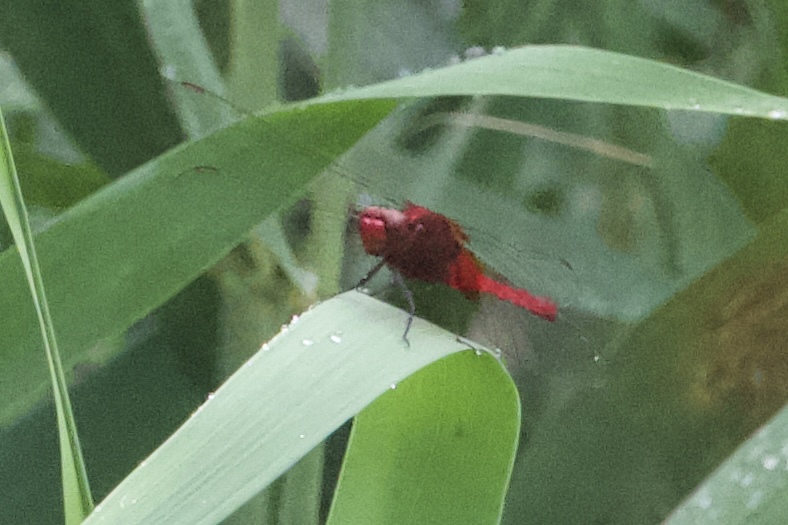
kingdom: Animalia
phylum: Arthropoda
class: Insecta
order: Odonata
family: Libellulidae
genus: Crocothemis
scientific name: Crocothemis servilia
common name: Scarlet skimmer
